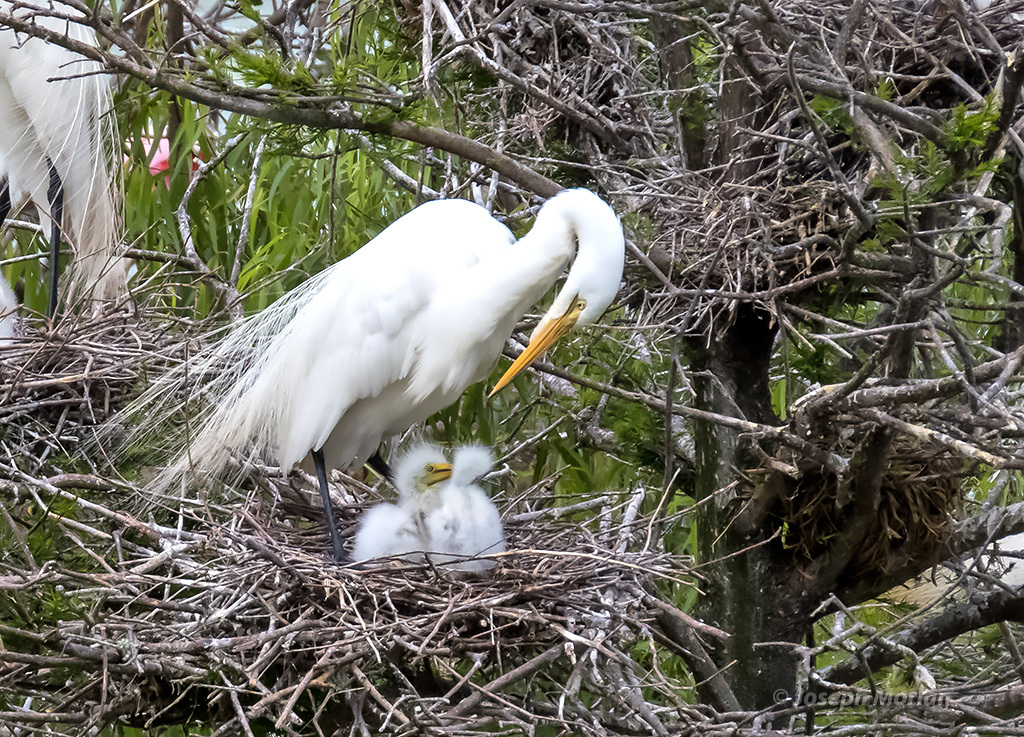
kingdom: Animalia
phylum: Chordata
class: Aves
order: Pelecaniformes
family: Ardeidae
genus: Ardea
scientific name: Ardea alba
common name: Great egret
